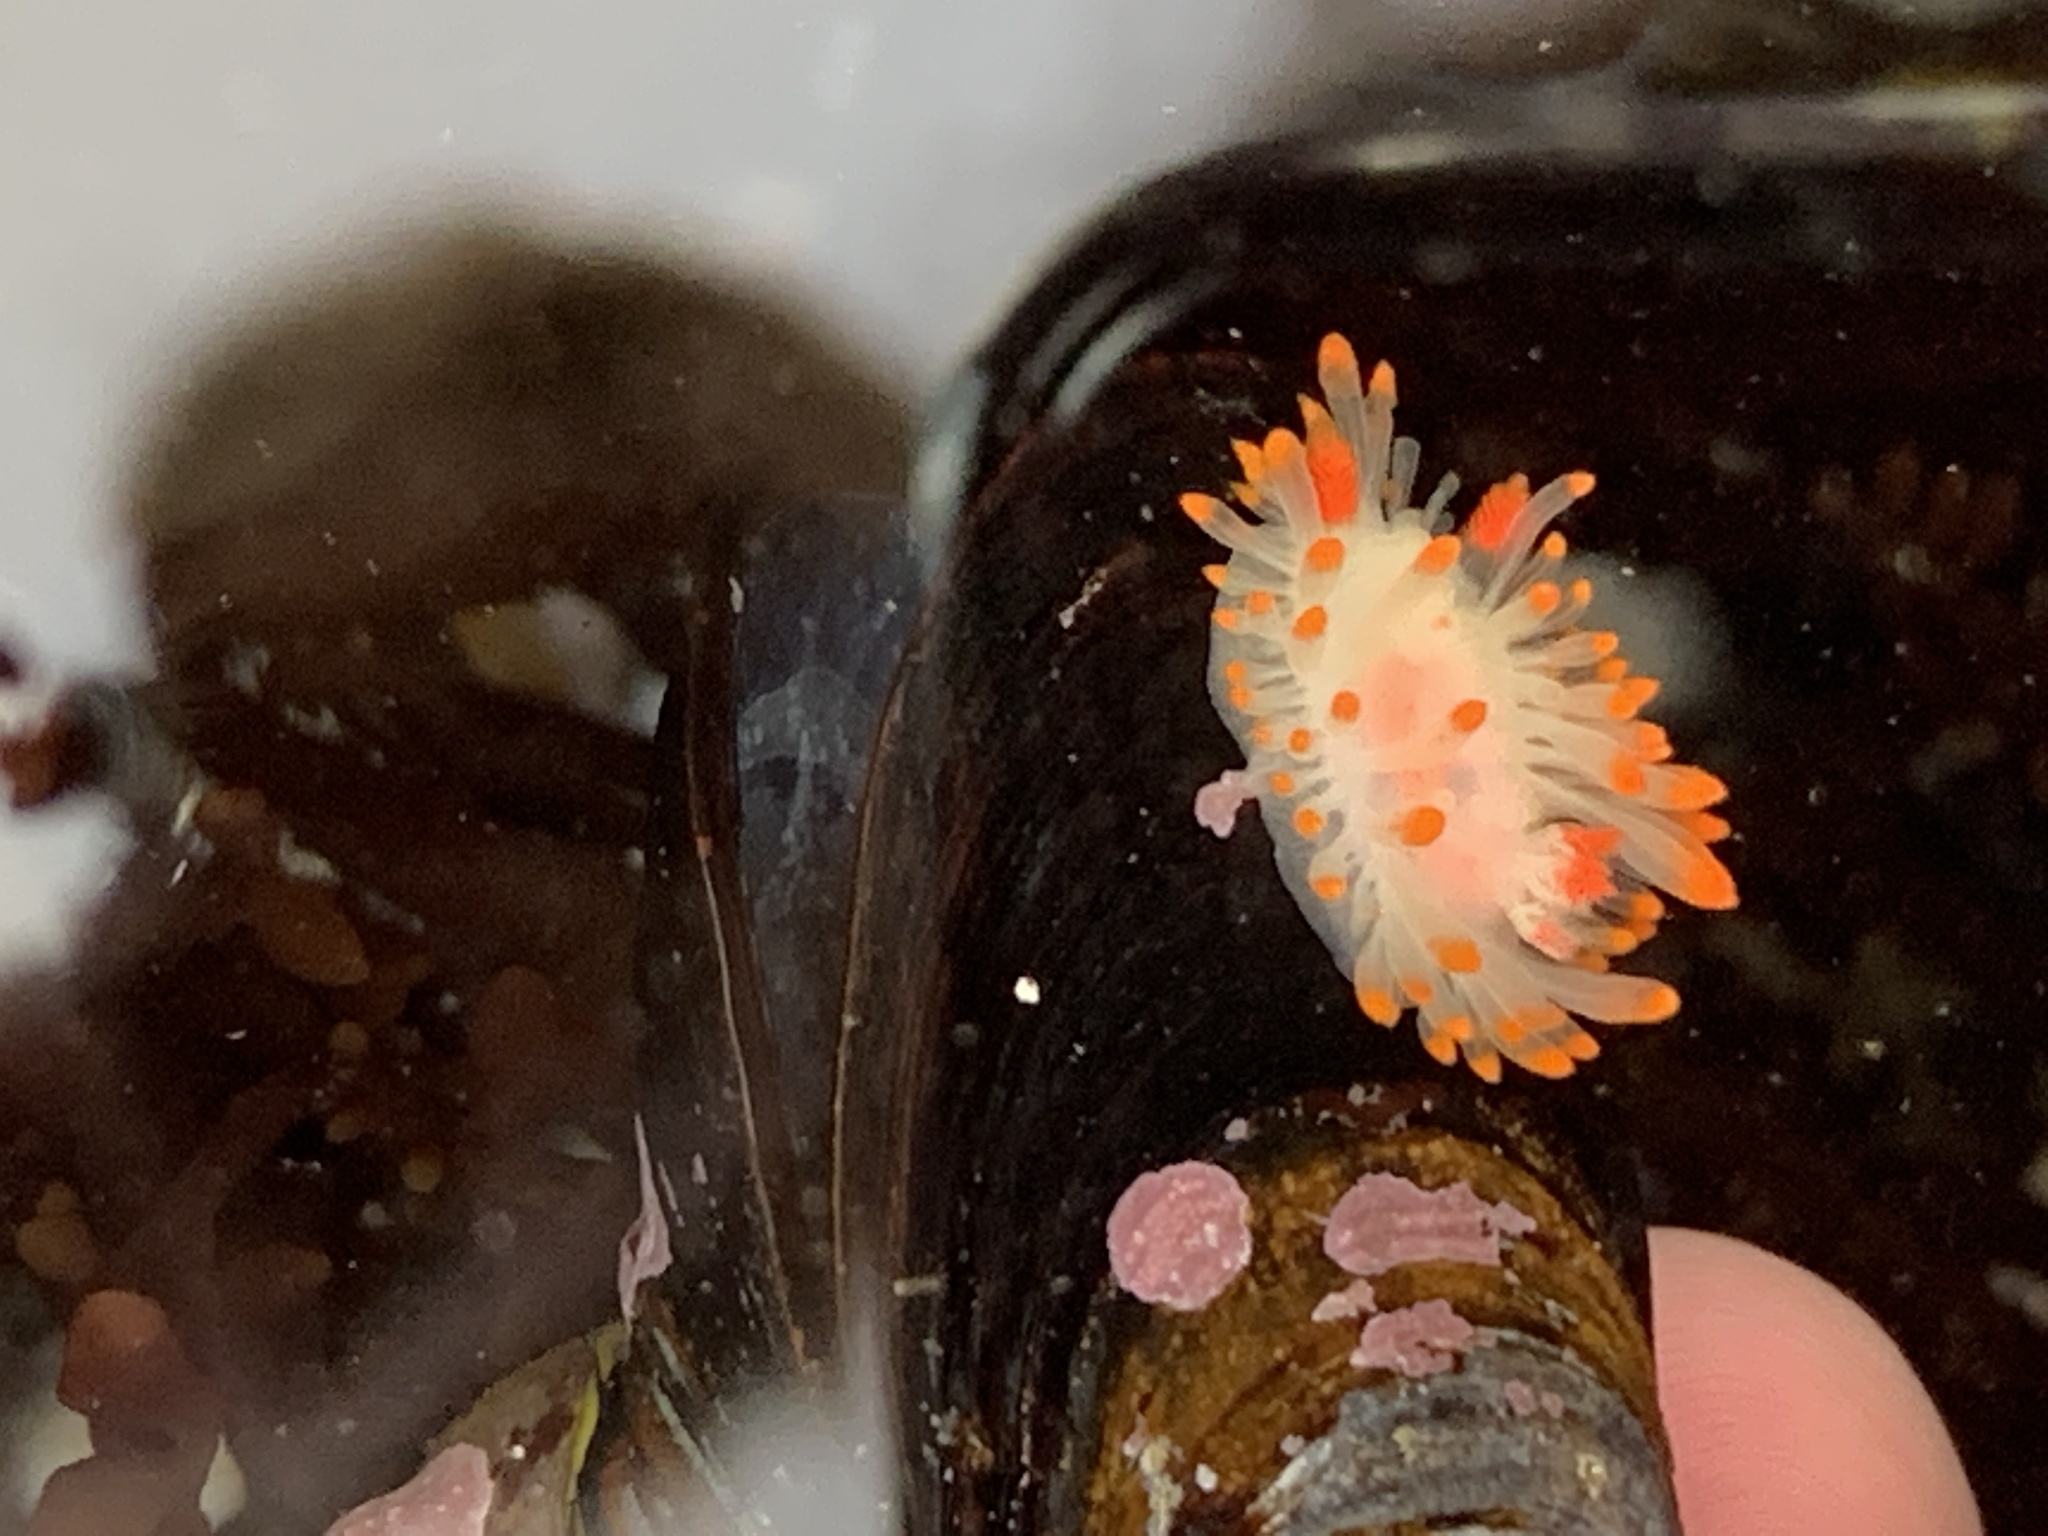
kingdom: Animalia
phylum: Mollusca
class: Gastropoda
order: Nudibranchia
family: Polyceridae
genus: Limacia
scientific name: Limacia cockerelli
